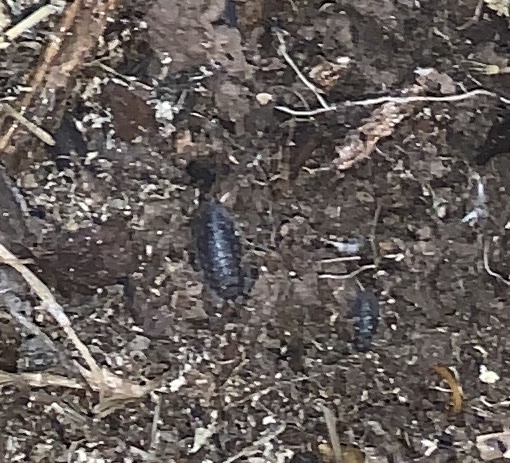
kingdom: Animalia
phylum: Arthropoda
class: Malacostraca
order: Isopoda
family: Oniscidae
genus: Oniscus
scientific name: Oniscus asellus
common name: Common shiny woodlouse
